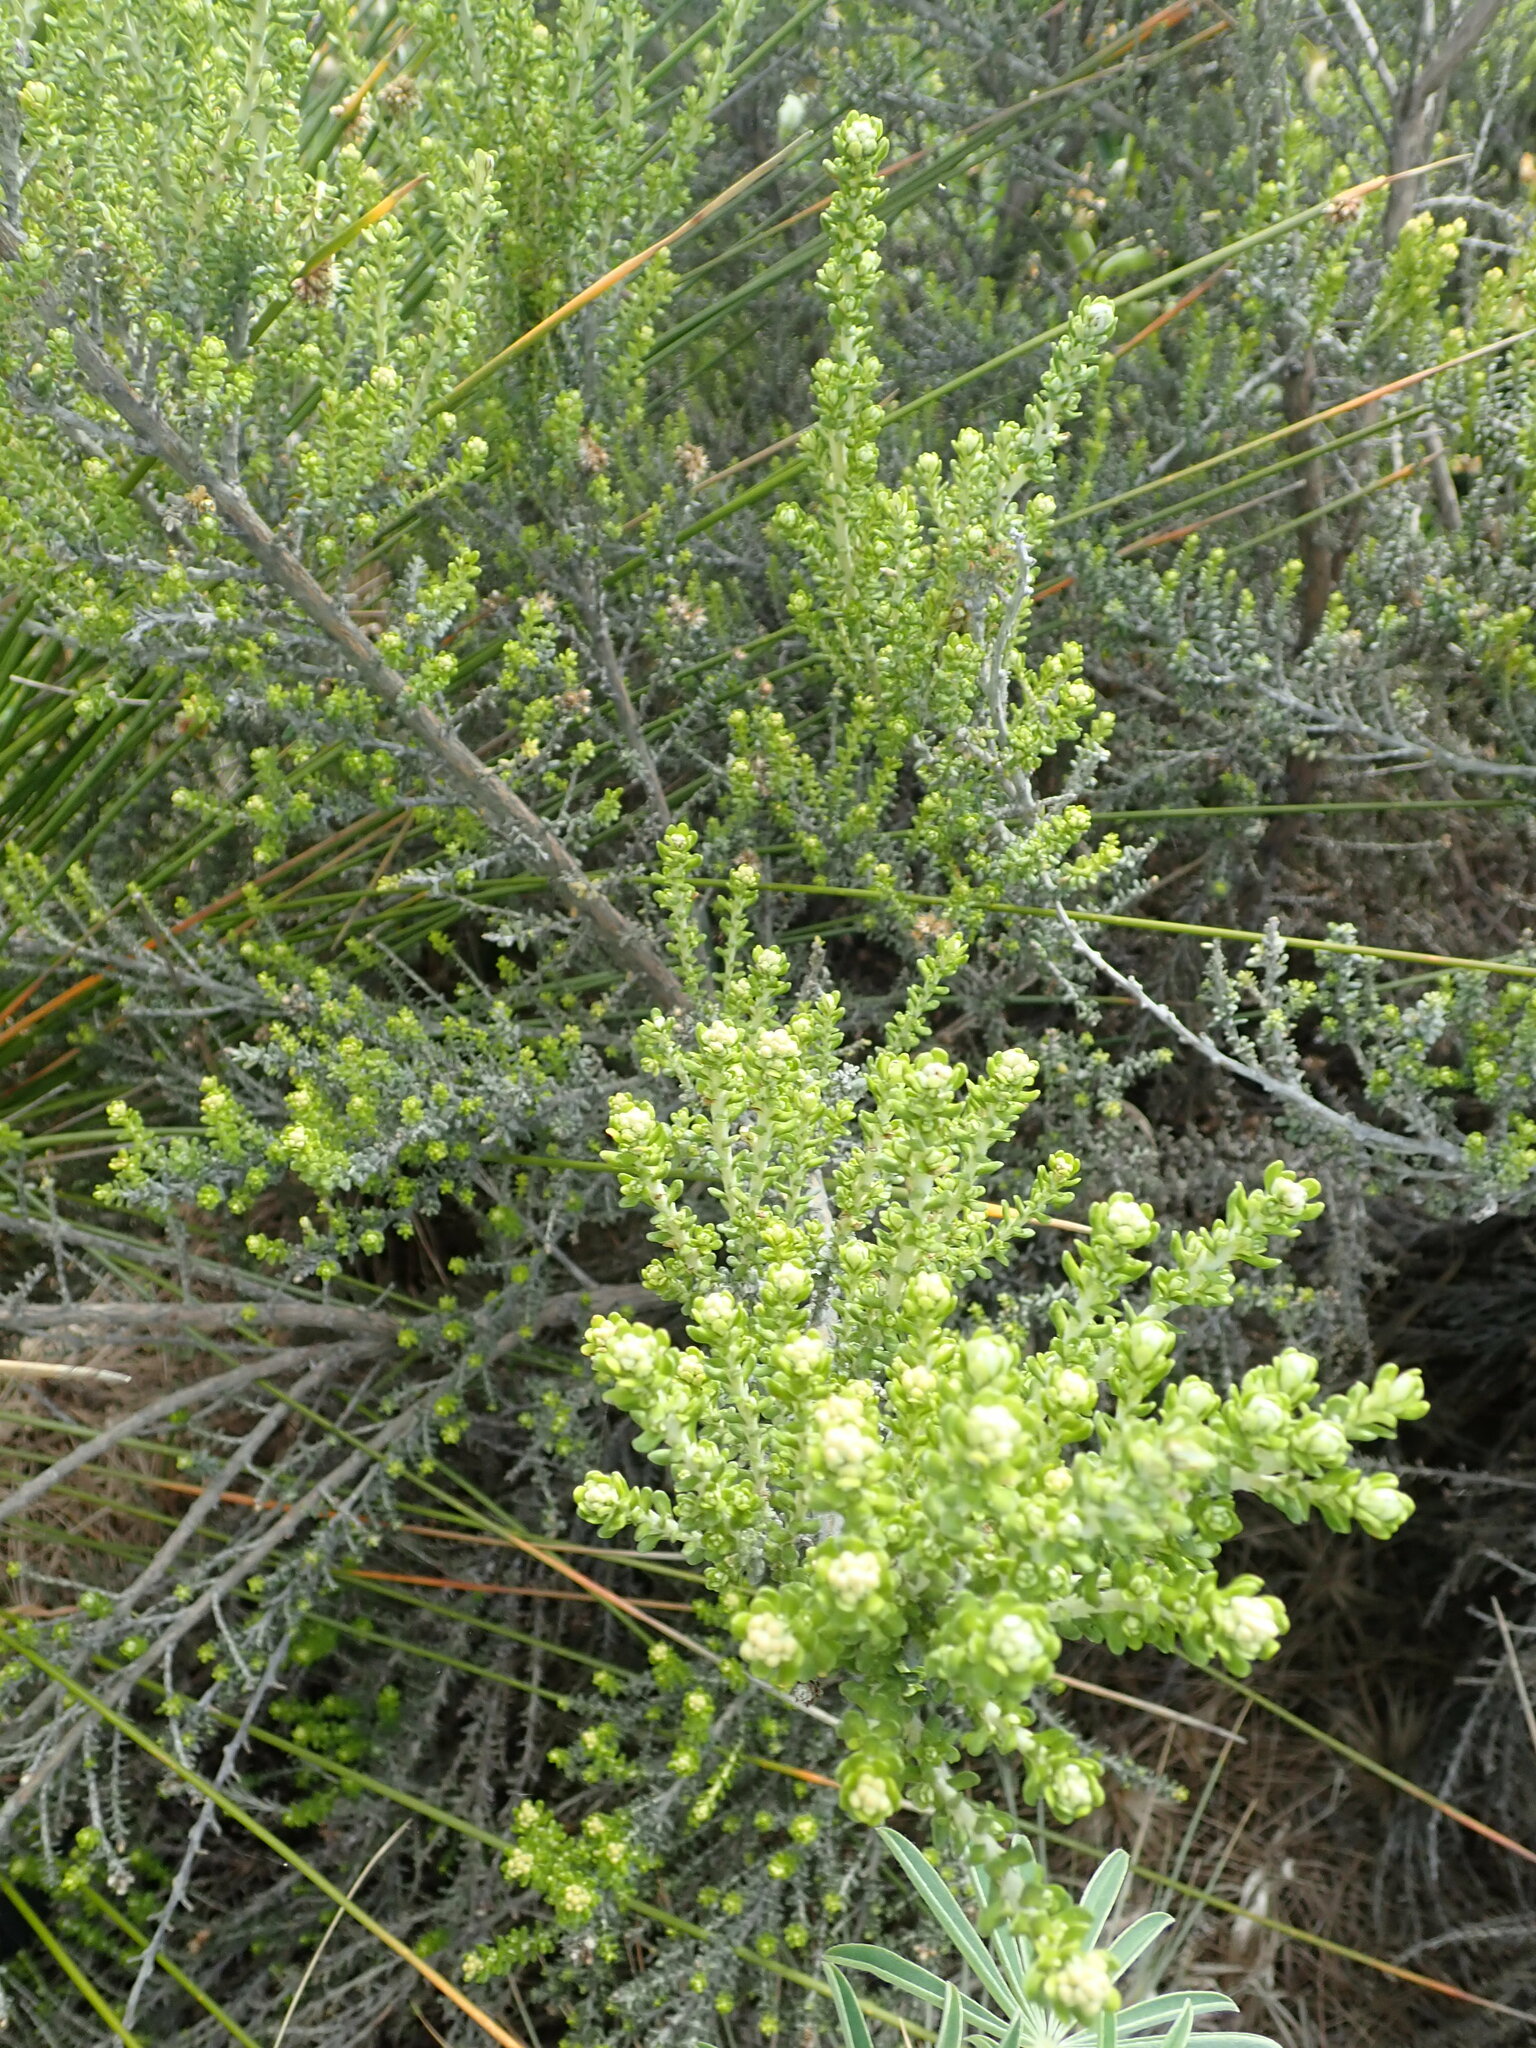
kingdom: Plantae
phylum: Tracheophyta
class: Magnoliopsida
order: Asterales
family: Asteraceae
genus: Ozothamnus
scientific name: Ozothamnus leptophyllus
